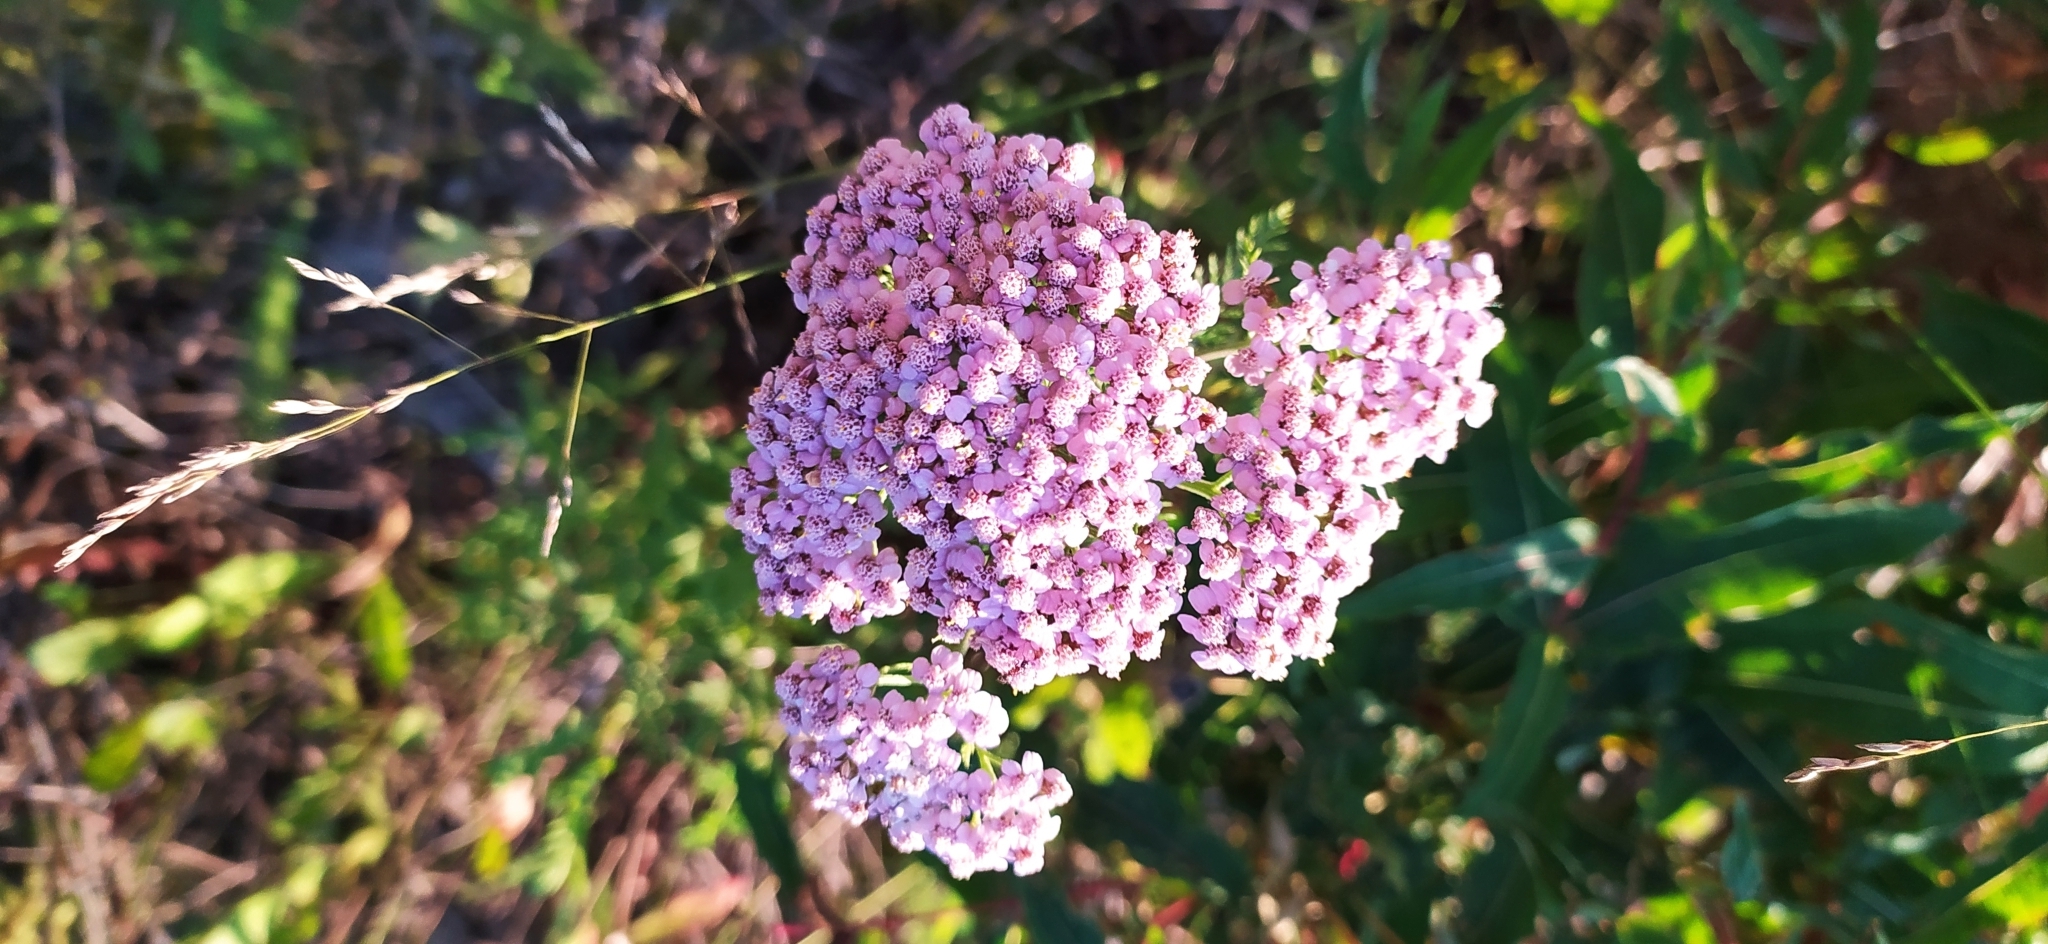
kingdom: Plantae
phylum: Tracheophyta
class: Magnoliopsida
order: Asterales
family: Asteraceae
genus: Achillea
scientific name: Achillea asiatica
